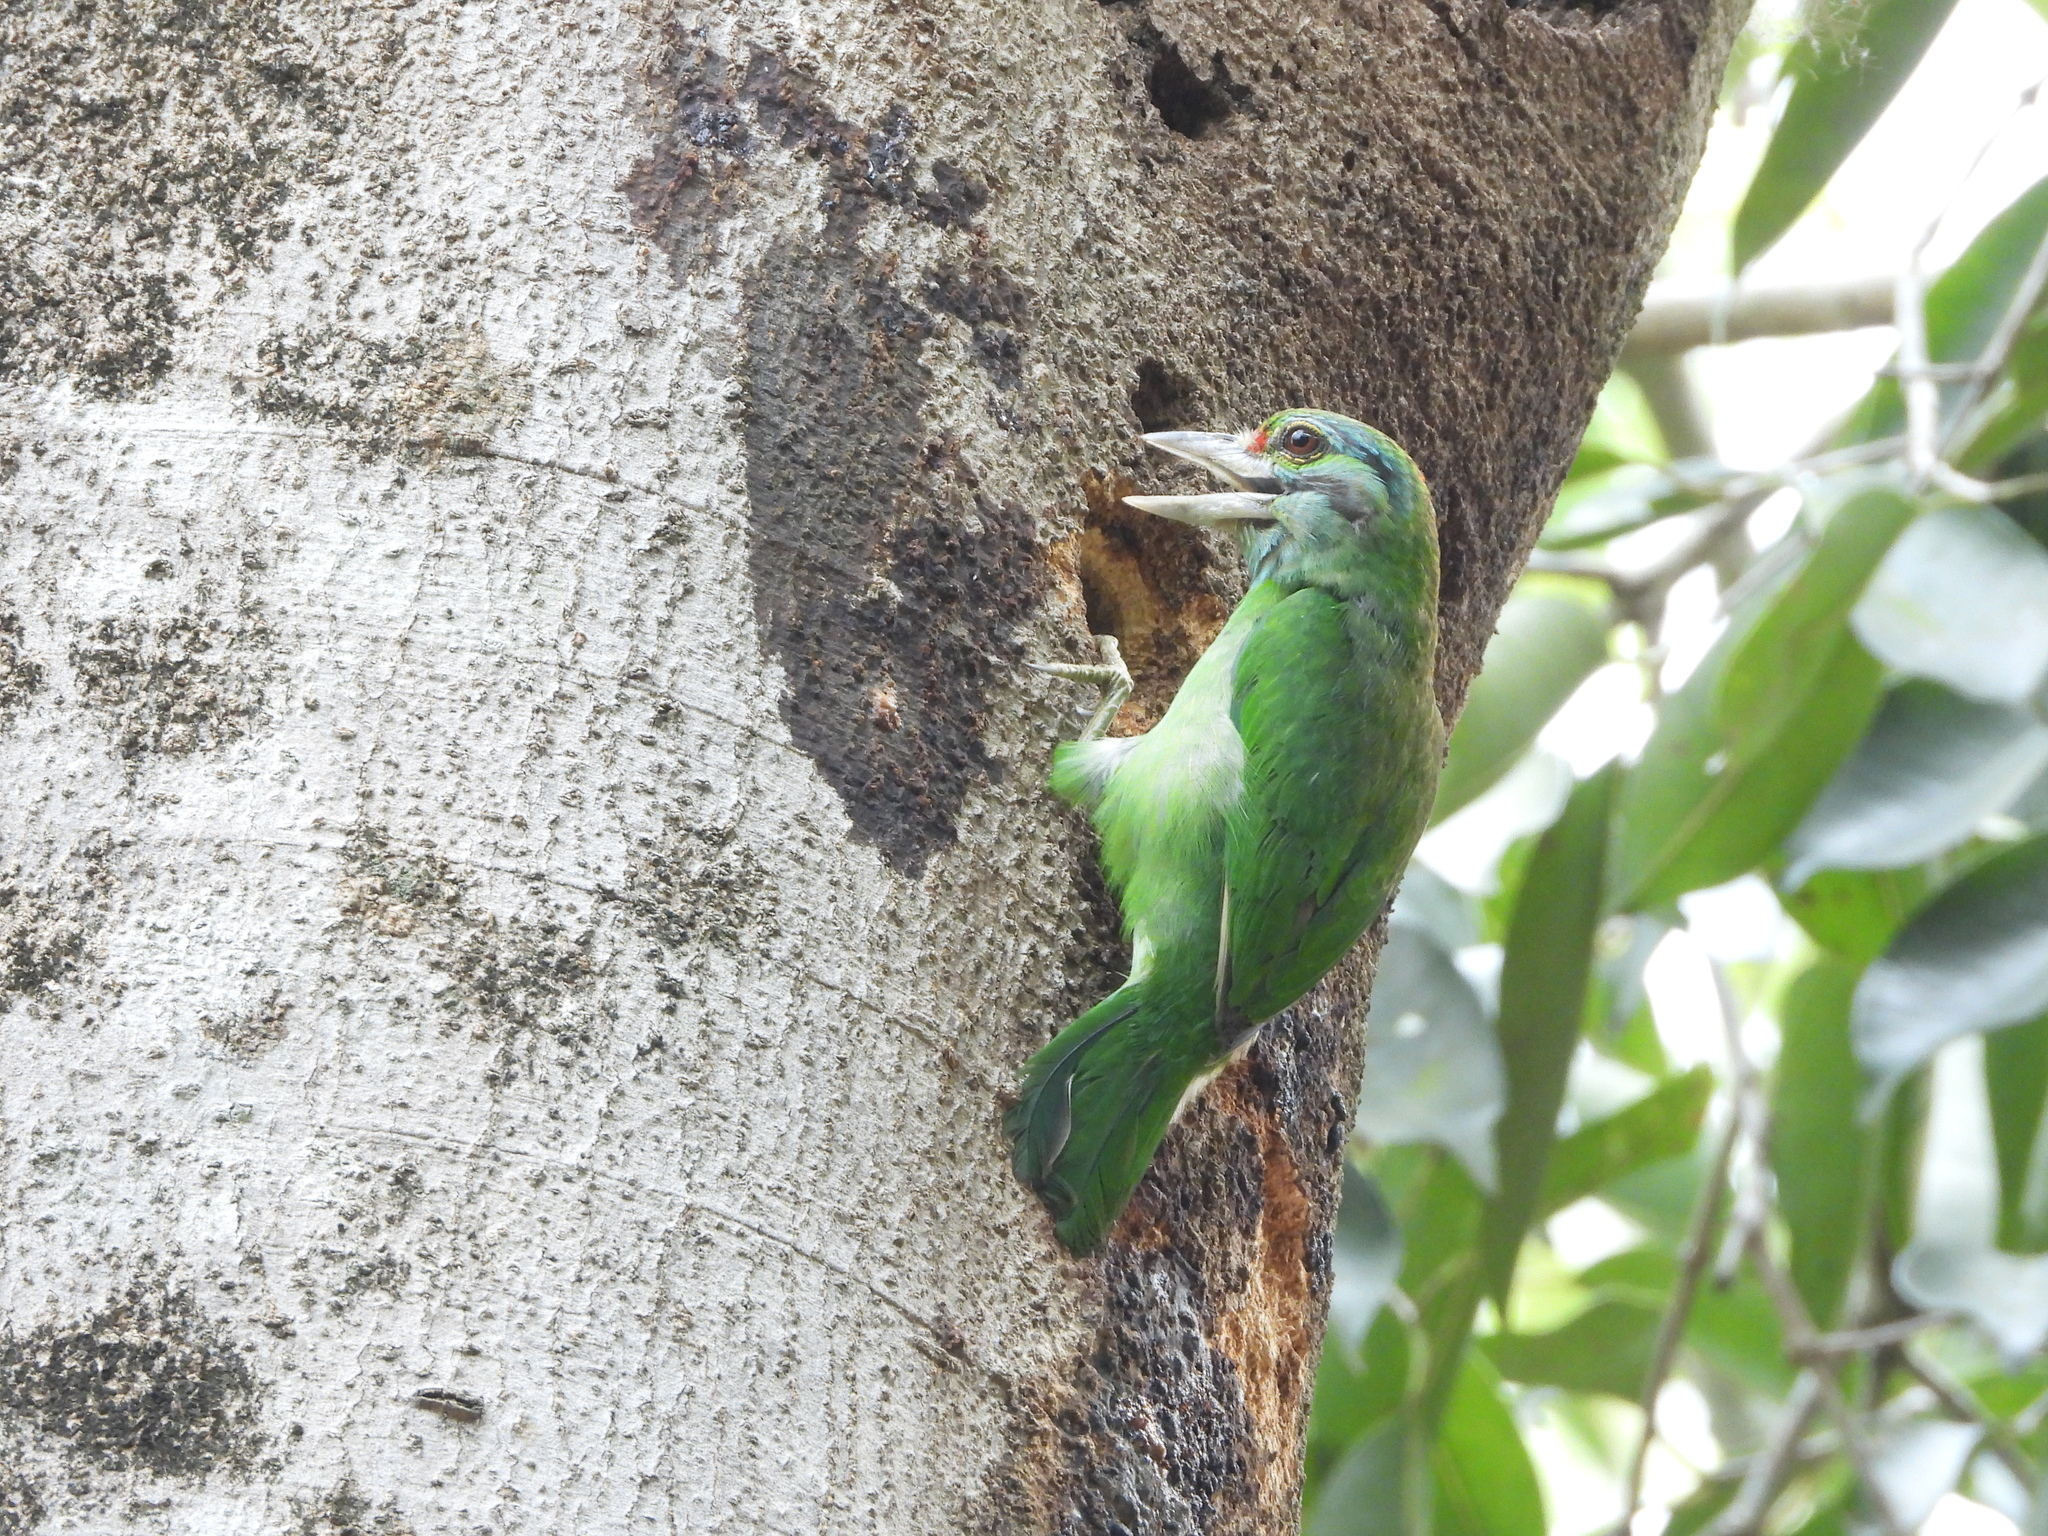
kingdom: Animalia
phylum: Chordata
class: Aves
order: Piciformes
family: Megalaimidae
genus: Psilopogon
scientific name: Psilopogon incognitus
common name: Moustached barbet
